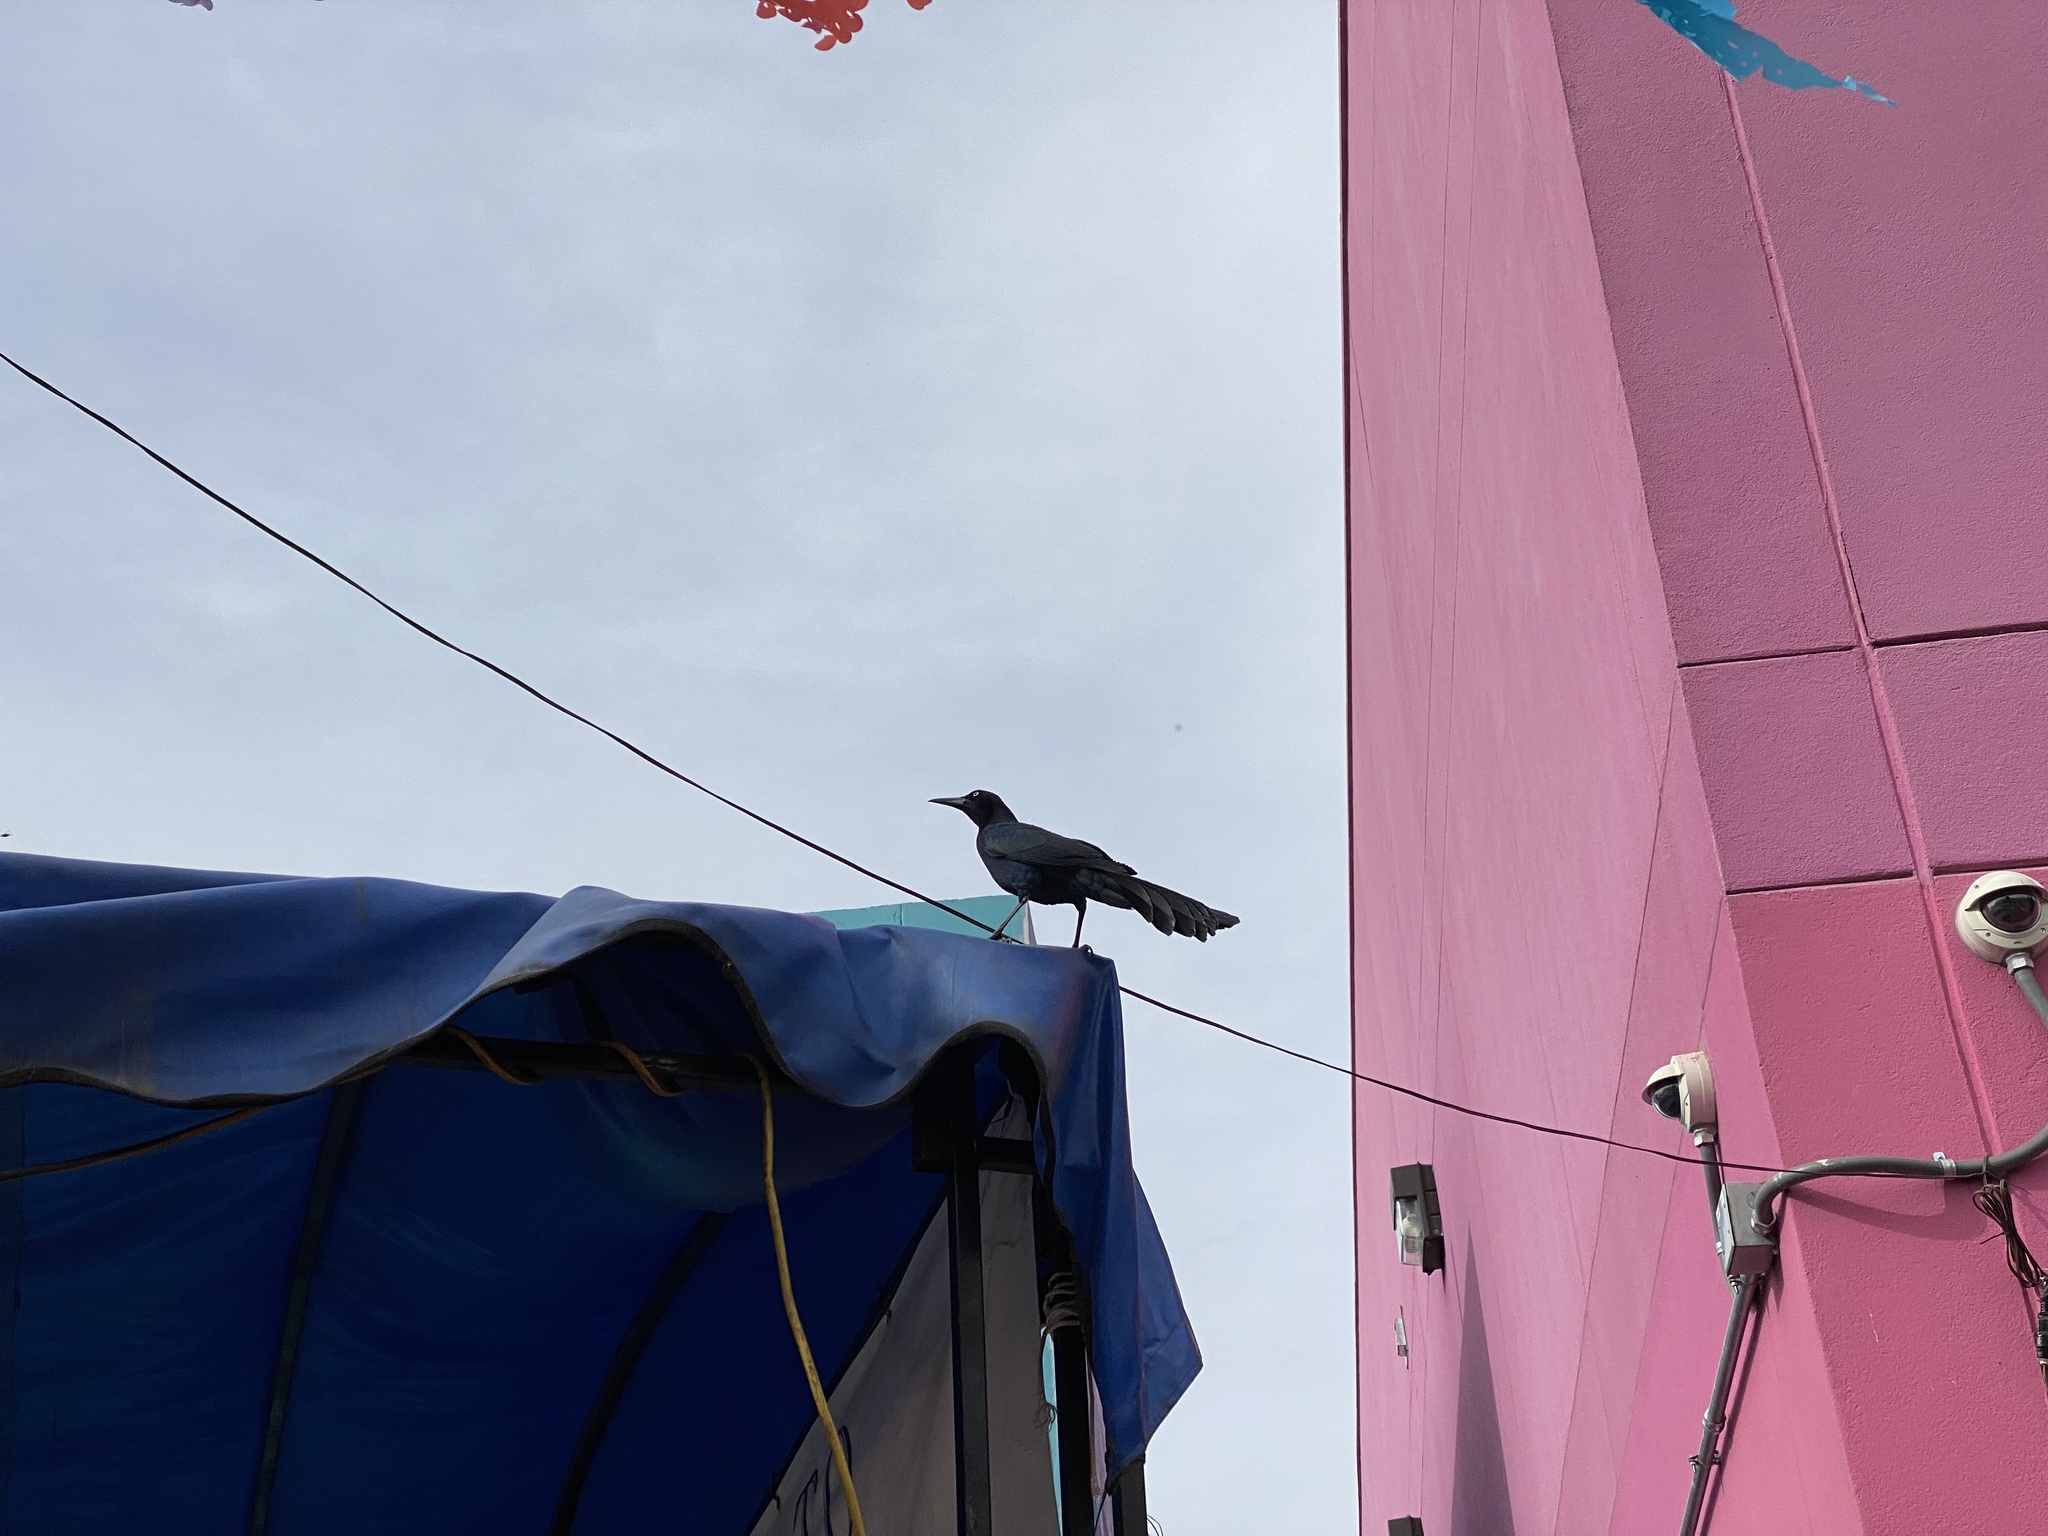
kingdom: Animalia
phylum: Chordata
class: Aves
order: Passeriformes
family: Icteridae
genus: Quiscalus
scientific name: Quiscalus mexicanus
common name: Great-tailed grackle
